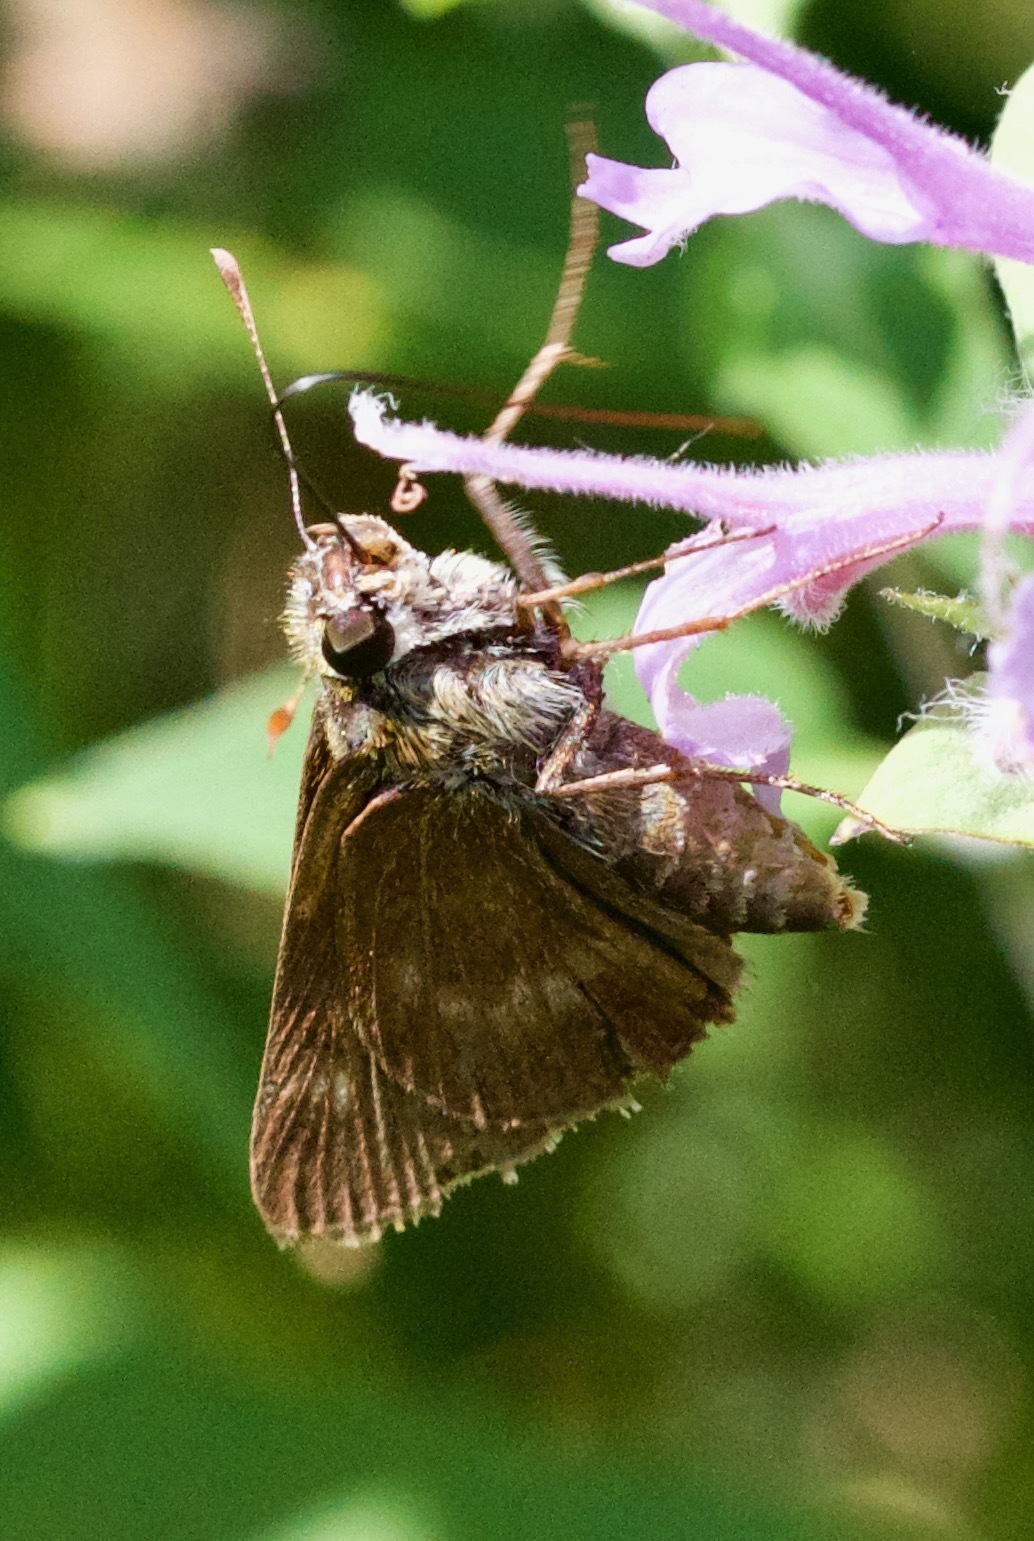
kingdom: Animalia
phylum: Arthropoda
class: Insecta
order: Lepidoptera
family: Hesperiidae
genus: Polites
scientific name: Polites egeremet
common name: Northern broken-dash
